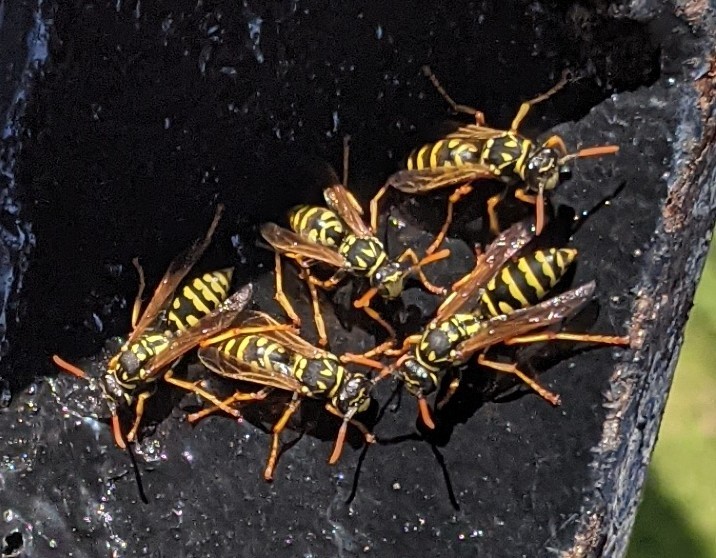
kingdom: Animalia
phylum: Arthropoda
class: Insecta
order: Hymenoptera
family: Eumenidae
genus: Polistes
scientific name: Polistes dominula
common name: Paper wasp
